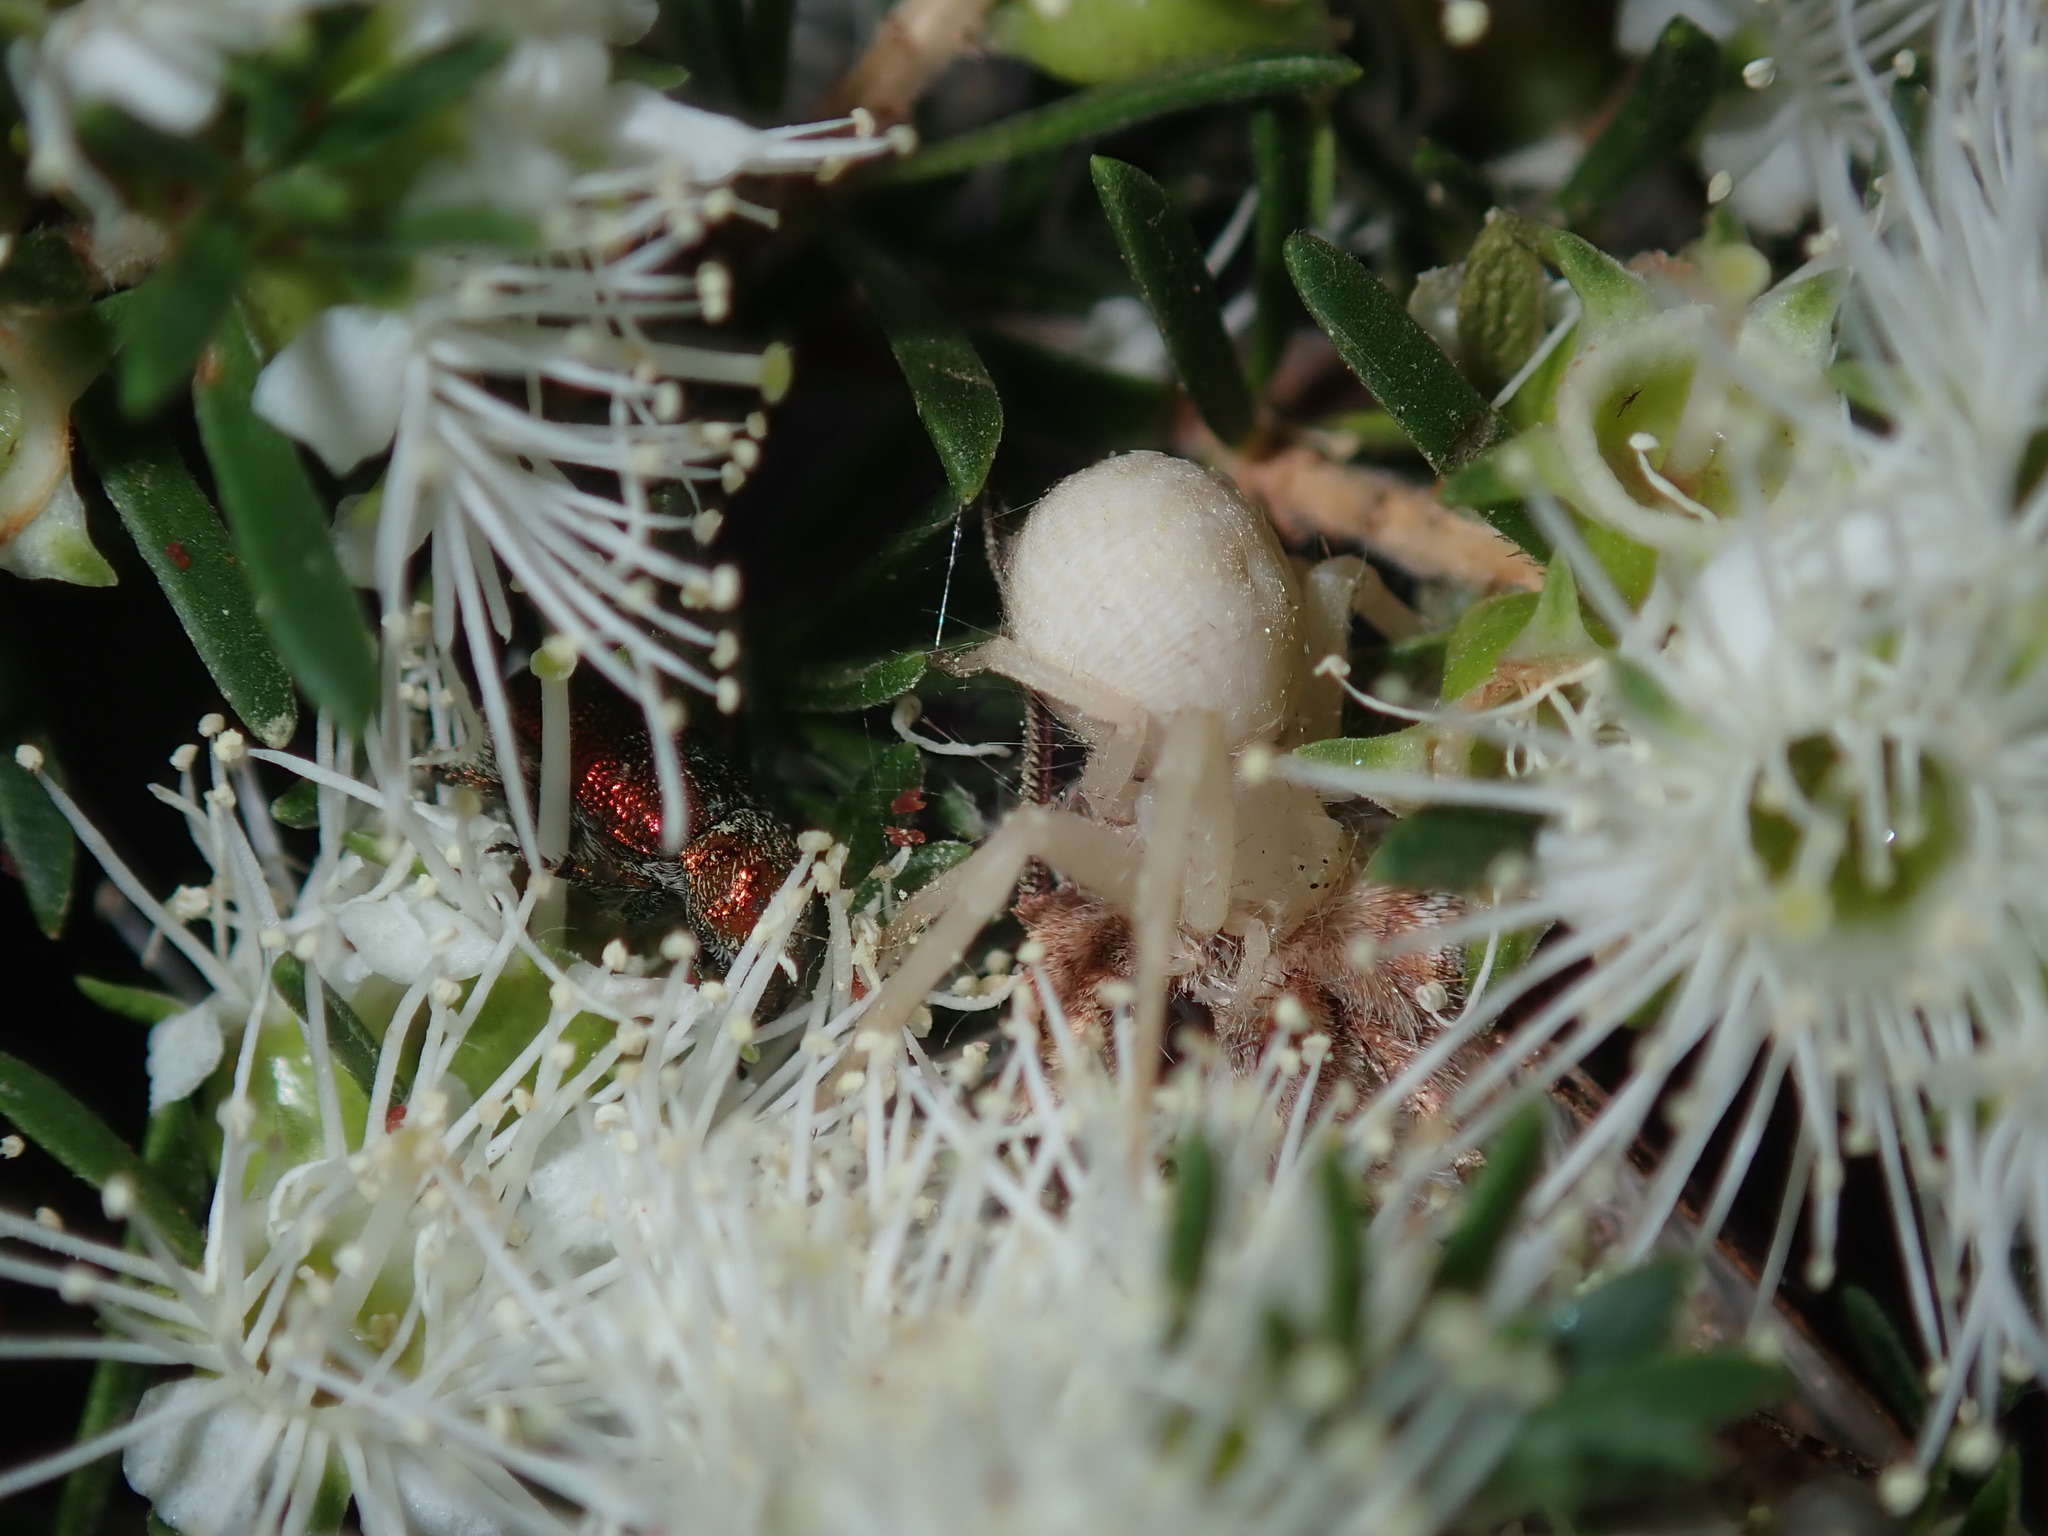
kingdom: Animalia
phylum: Arthropoda
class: Arachnida
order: Araneae
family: Thomisidae
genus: Zygometis
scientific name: Zygometis xanthogaster
